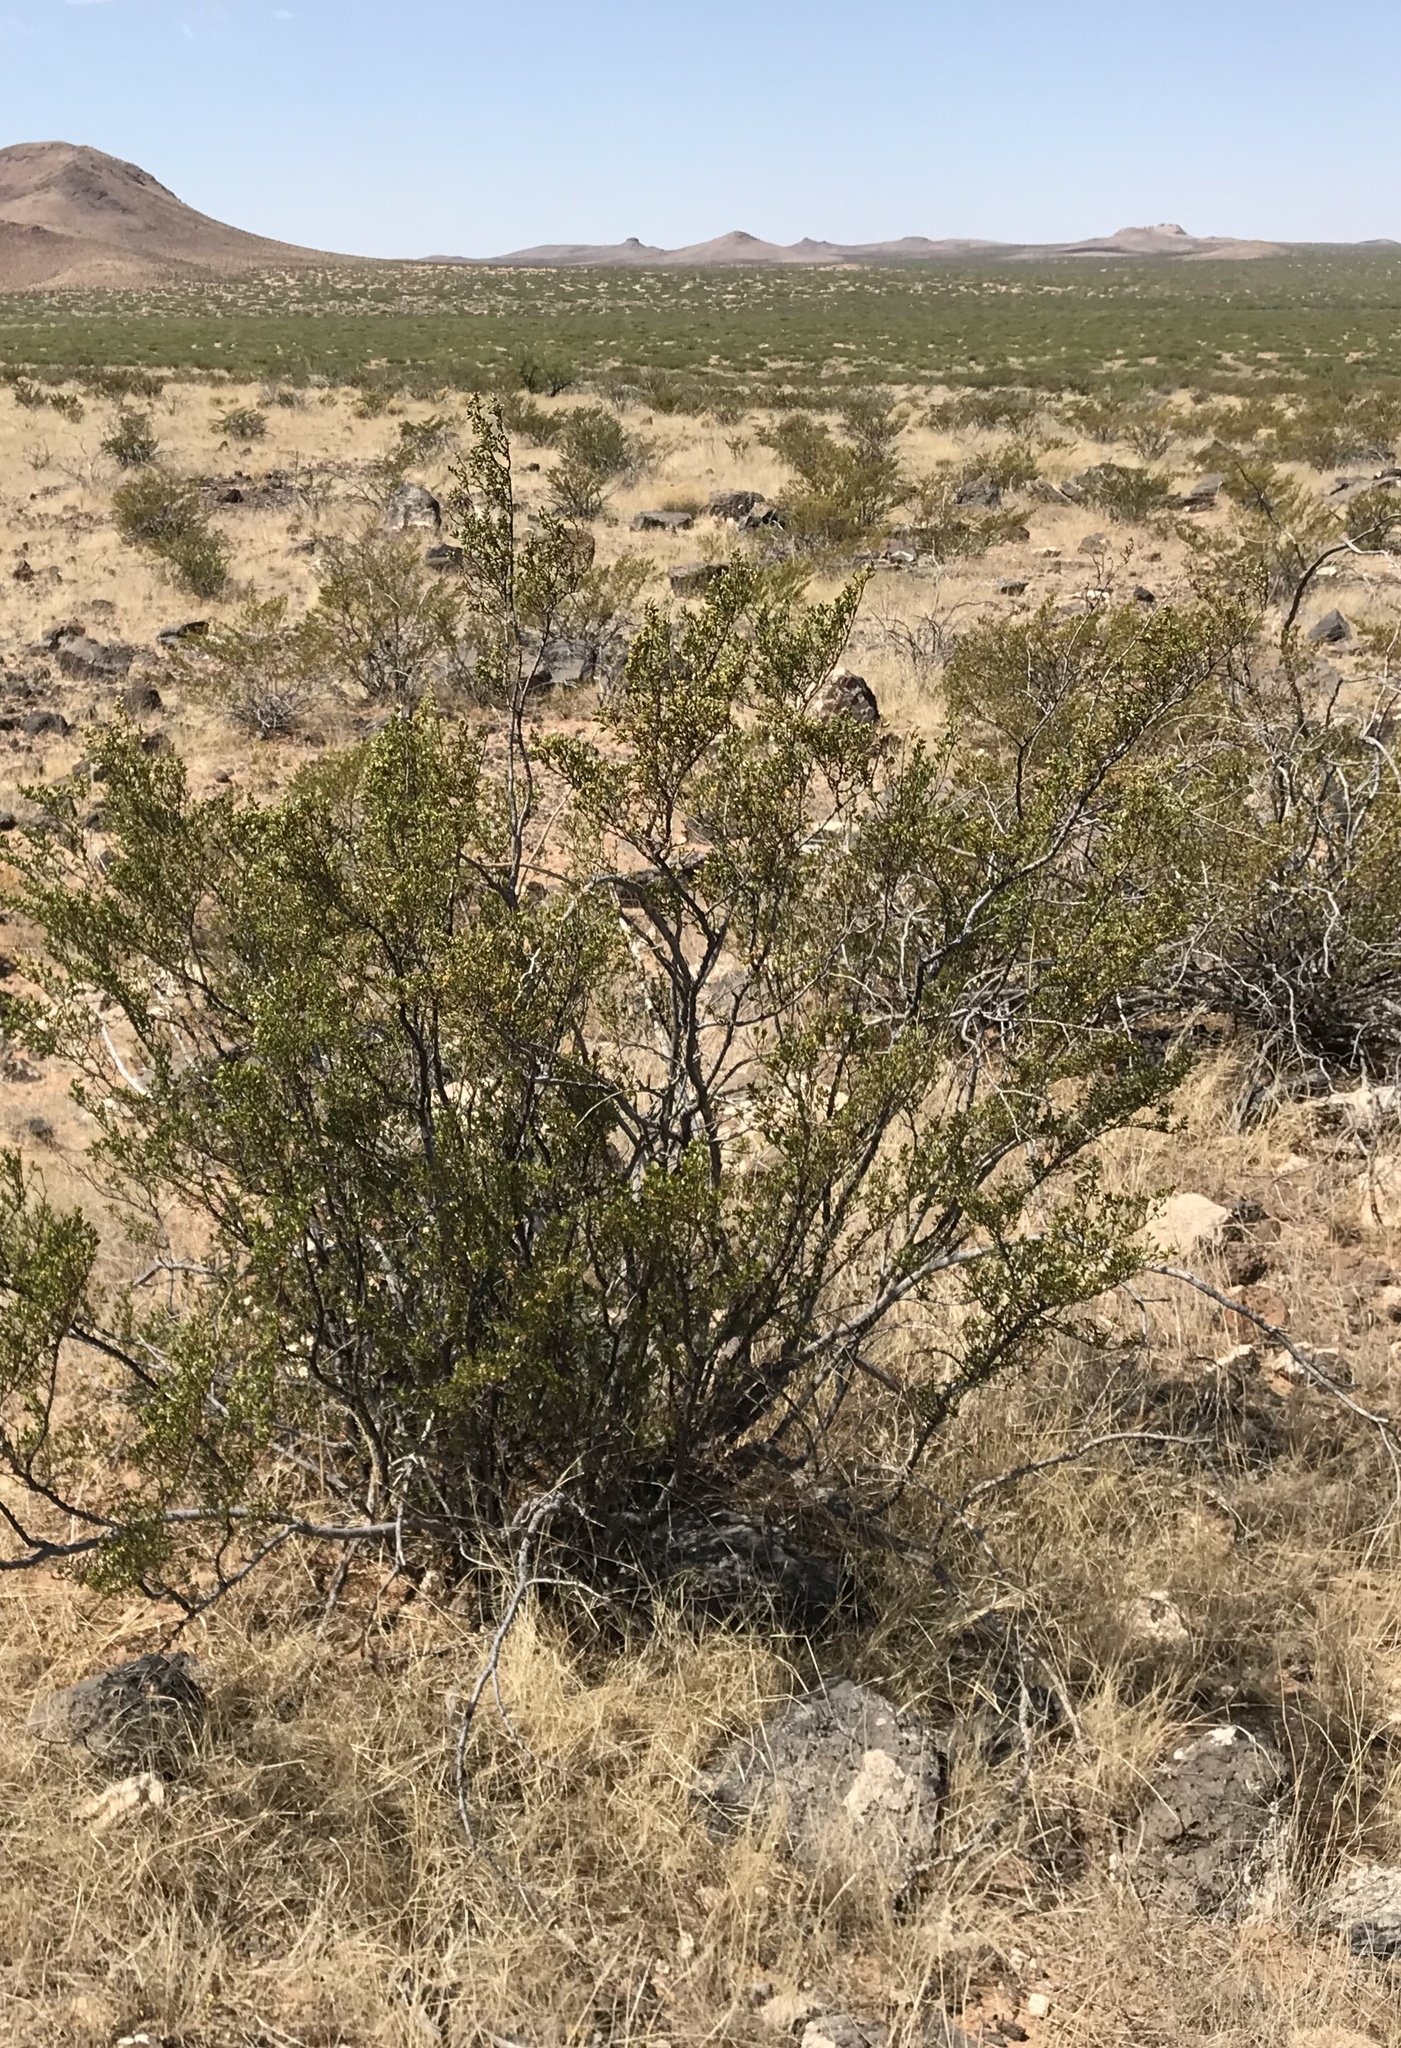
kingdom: Plantae
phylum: Tracheophyta
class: Magnoliopsida
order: Zygophyllales
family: Zygophyllaceae
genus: Larrea
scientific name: Larrea tridentata
